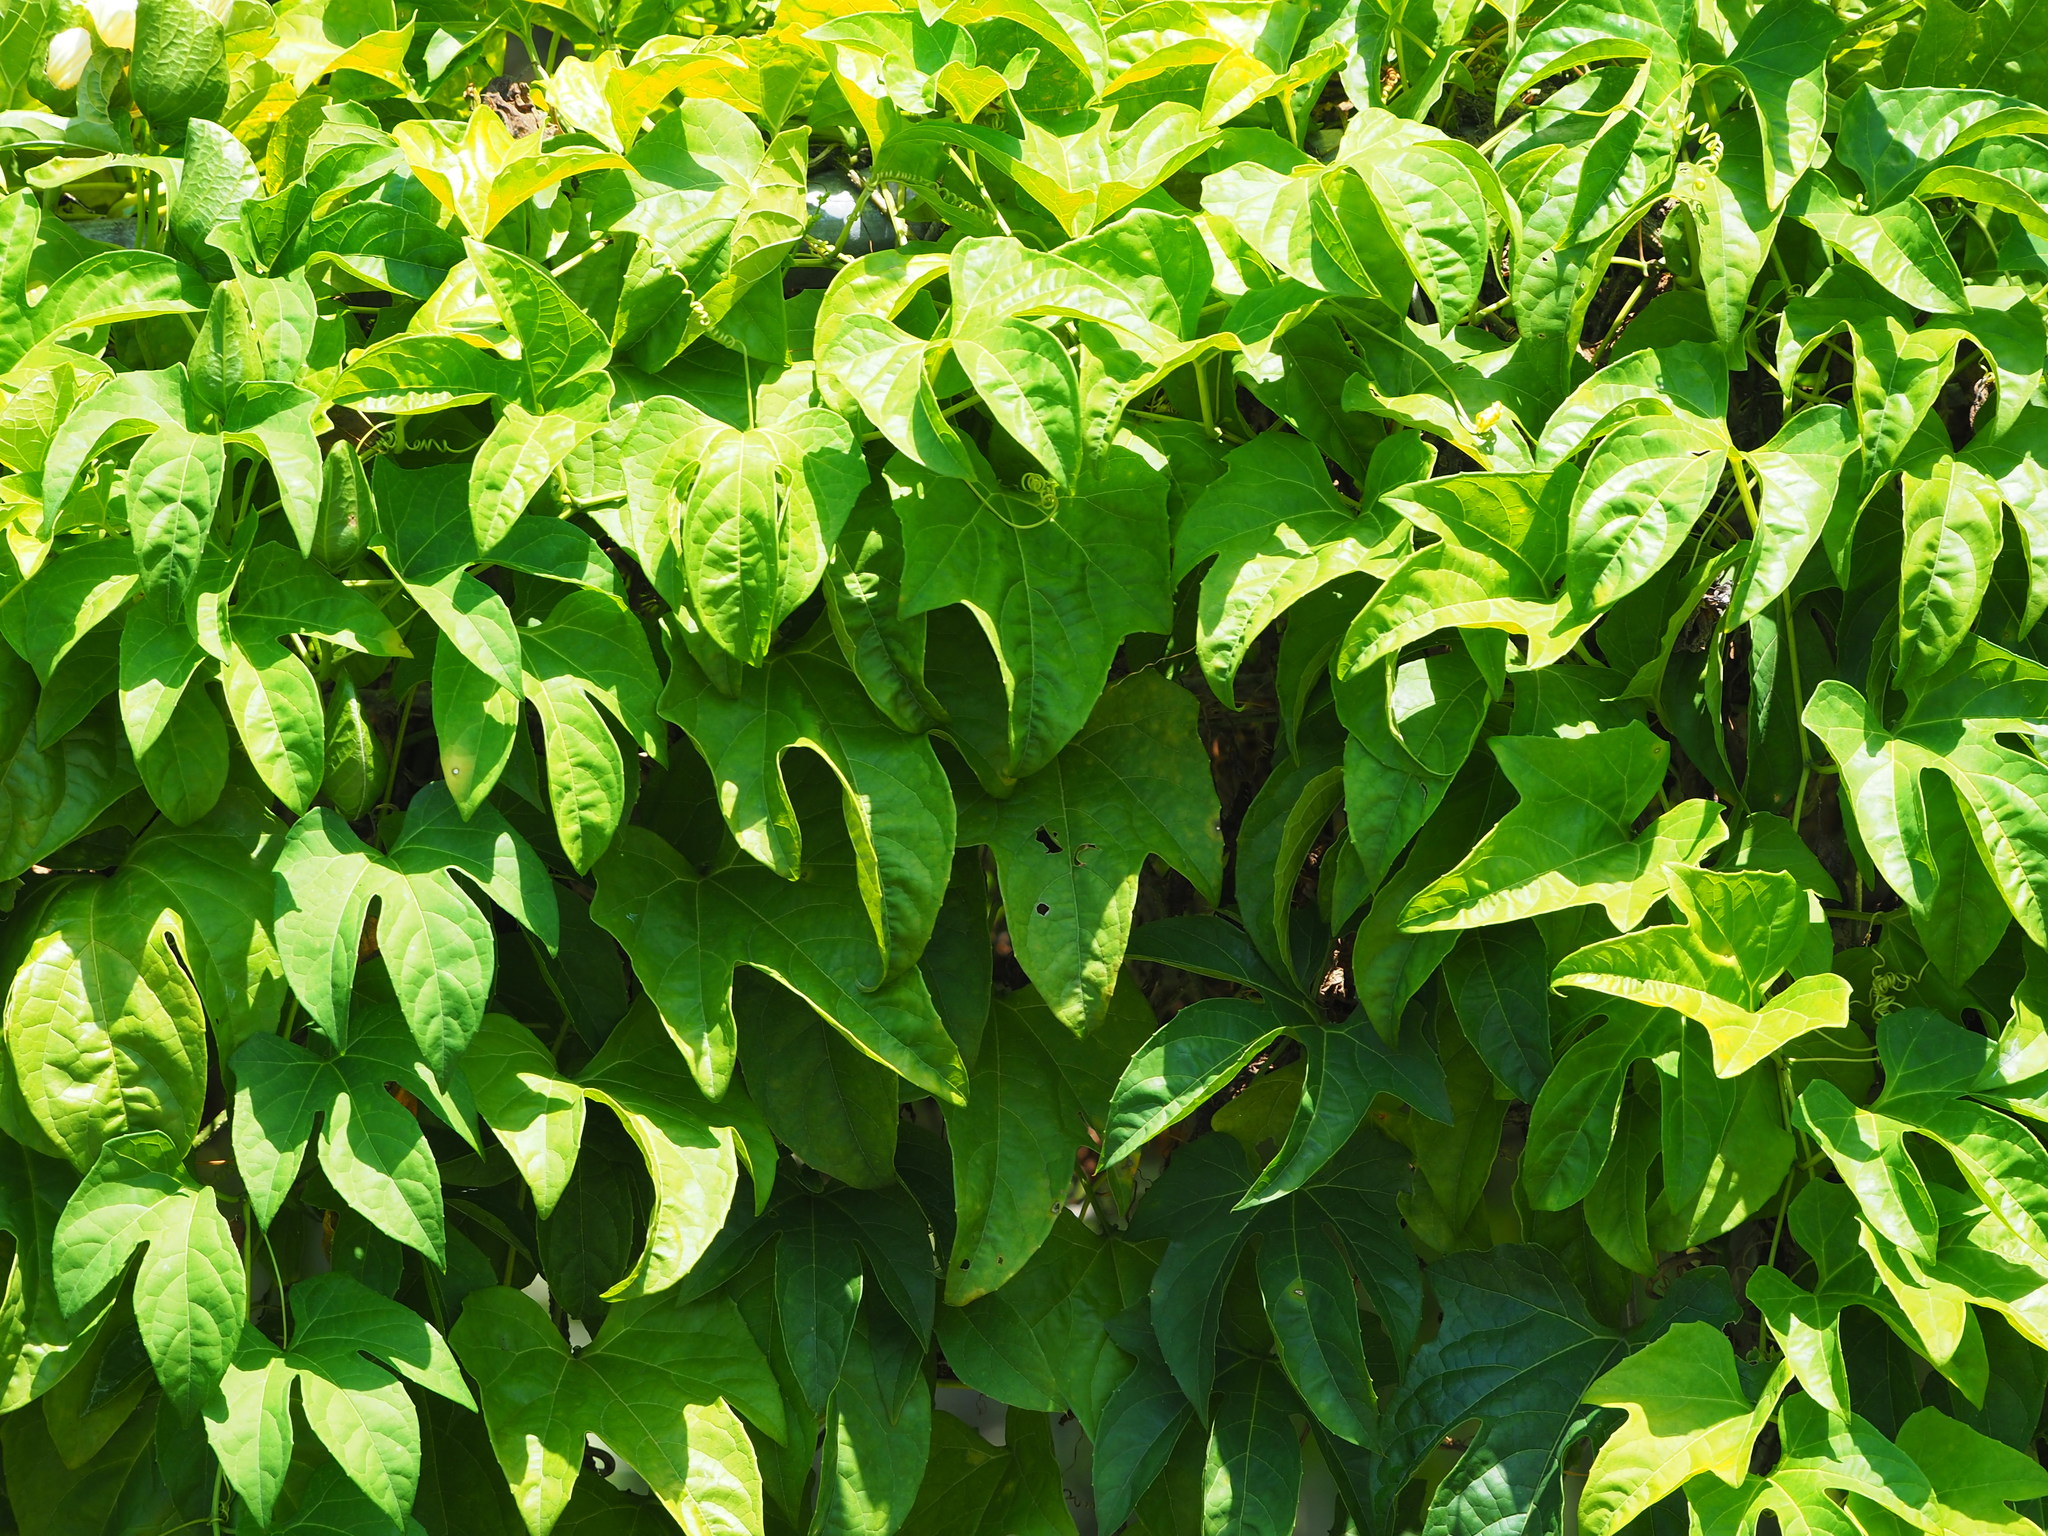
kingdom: Plantae
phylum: Tracheophyta
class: Magnoliopsida
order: Cucurbitales
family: Cucurbitaceae
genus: Momordica
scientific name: Momordica cochinchinensis
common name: Chinese bitter-cucumber
